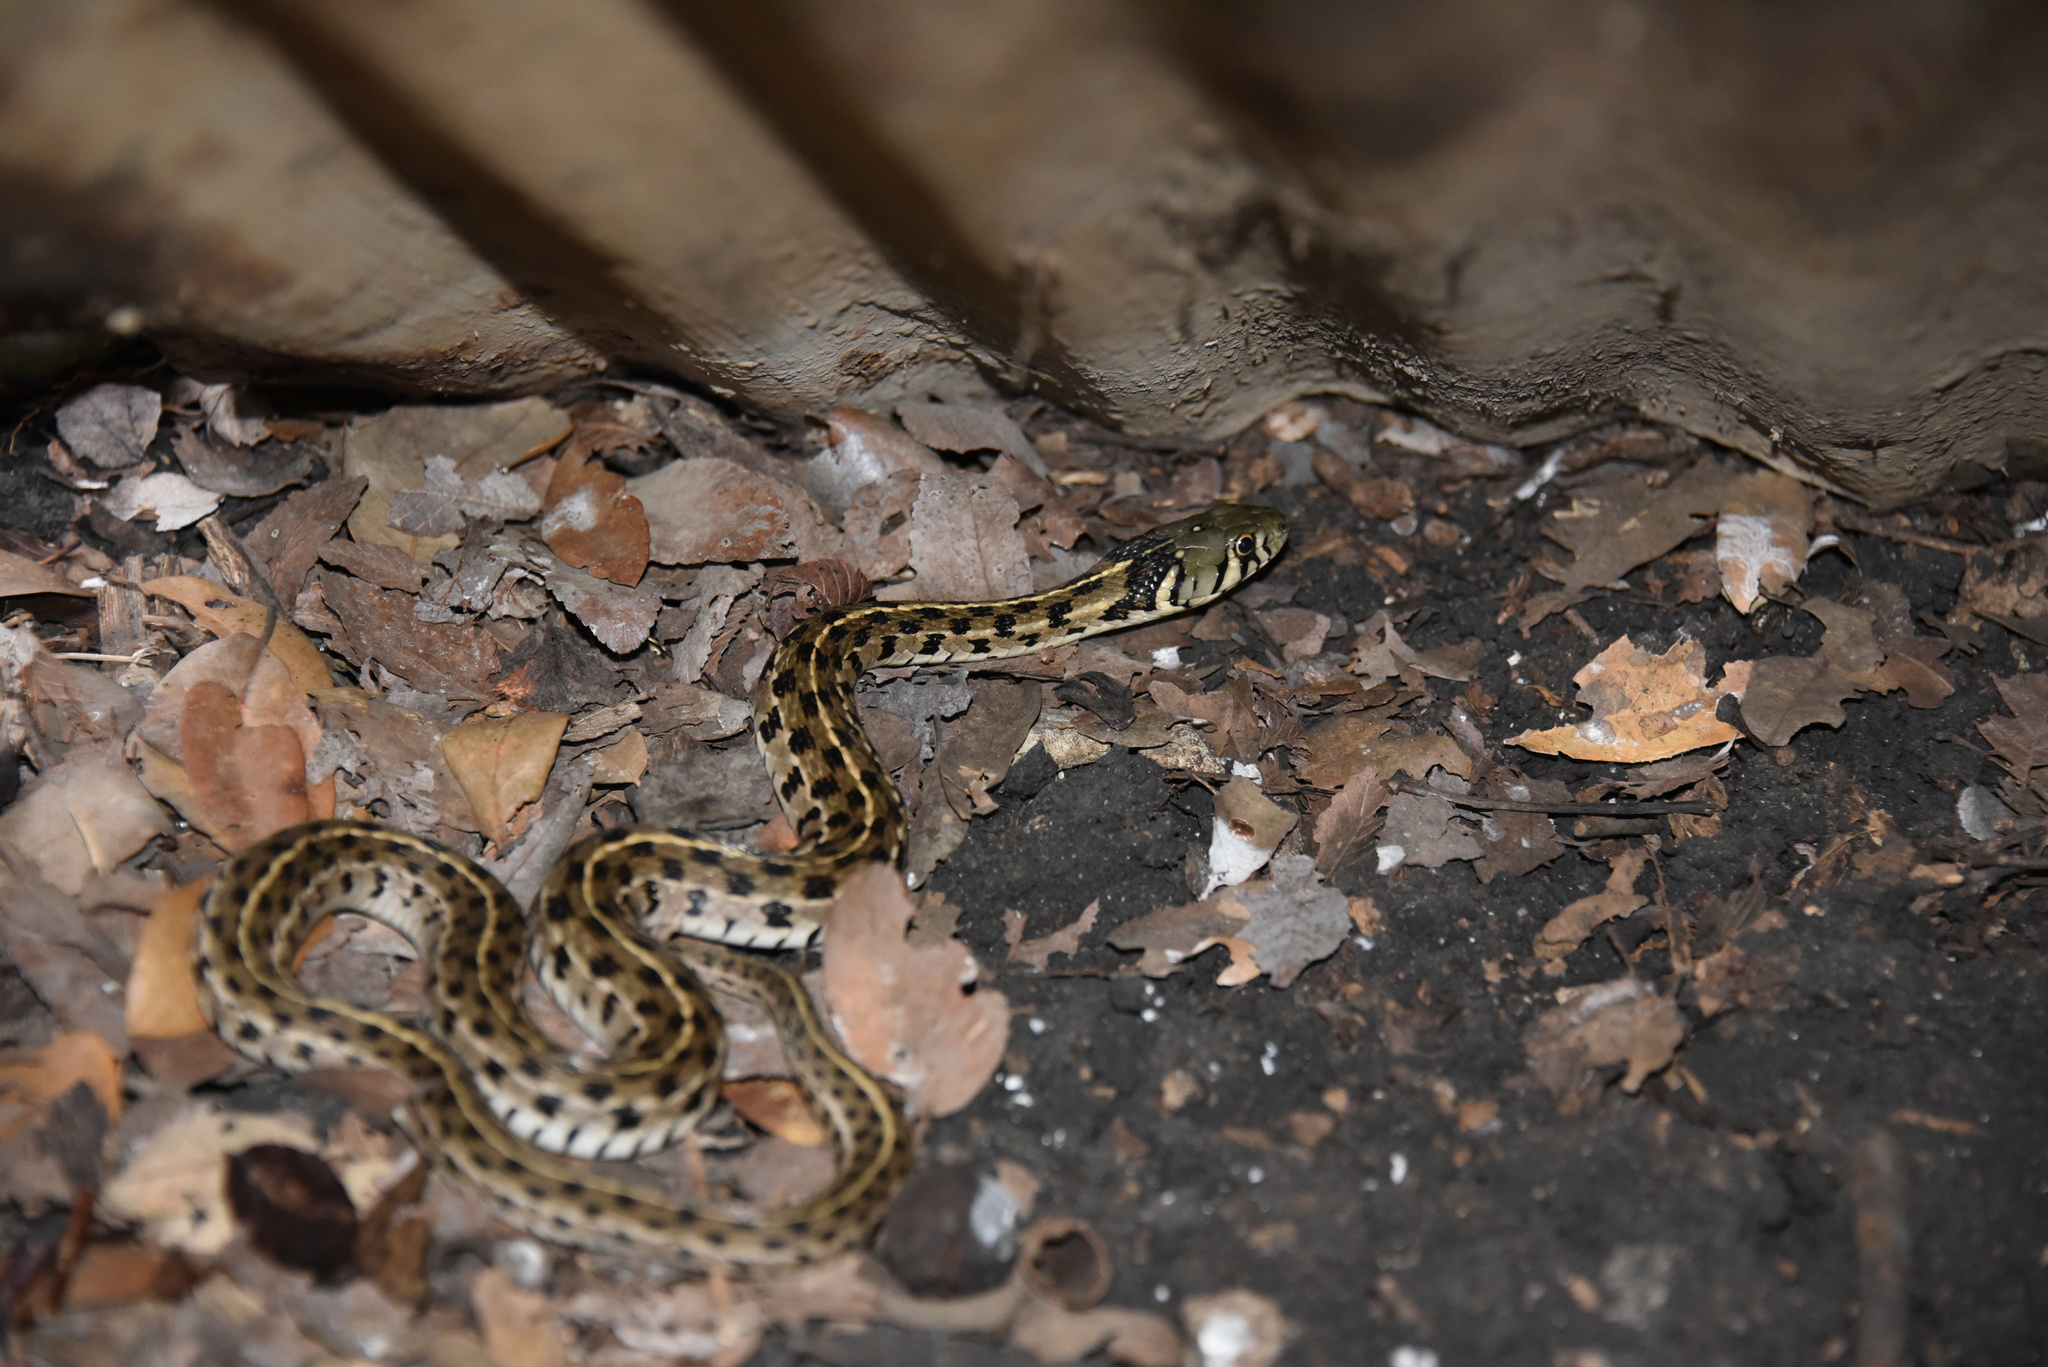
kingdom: Animalia
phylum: Chordata
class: Squamata
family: Colubridae
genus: Thamnophis
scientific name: Thamnophis marcianus
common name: Checkered garter snake
